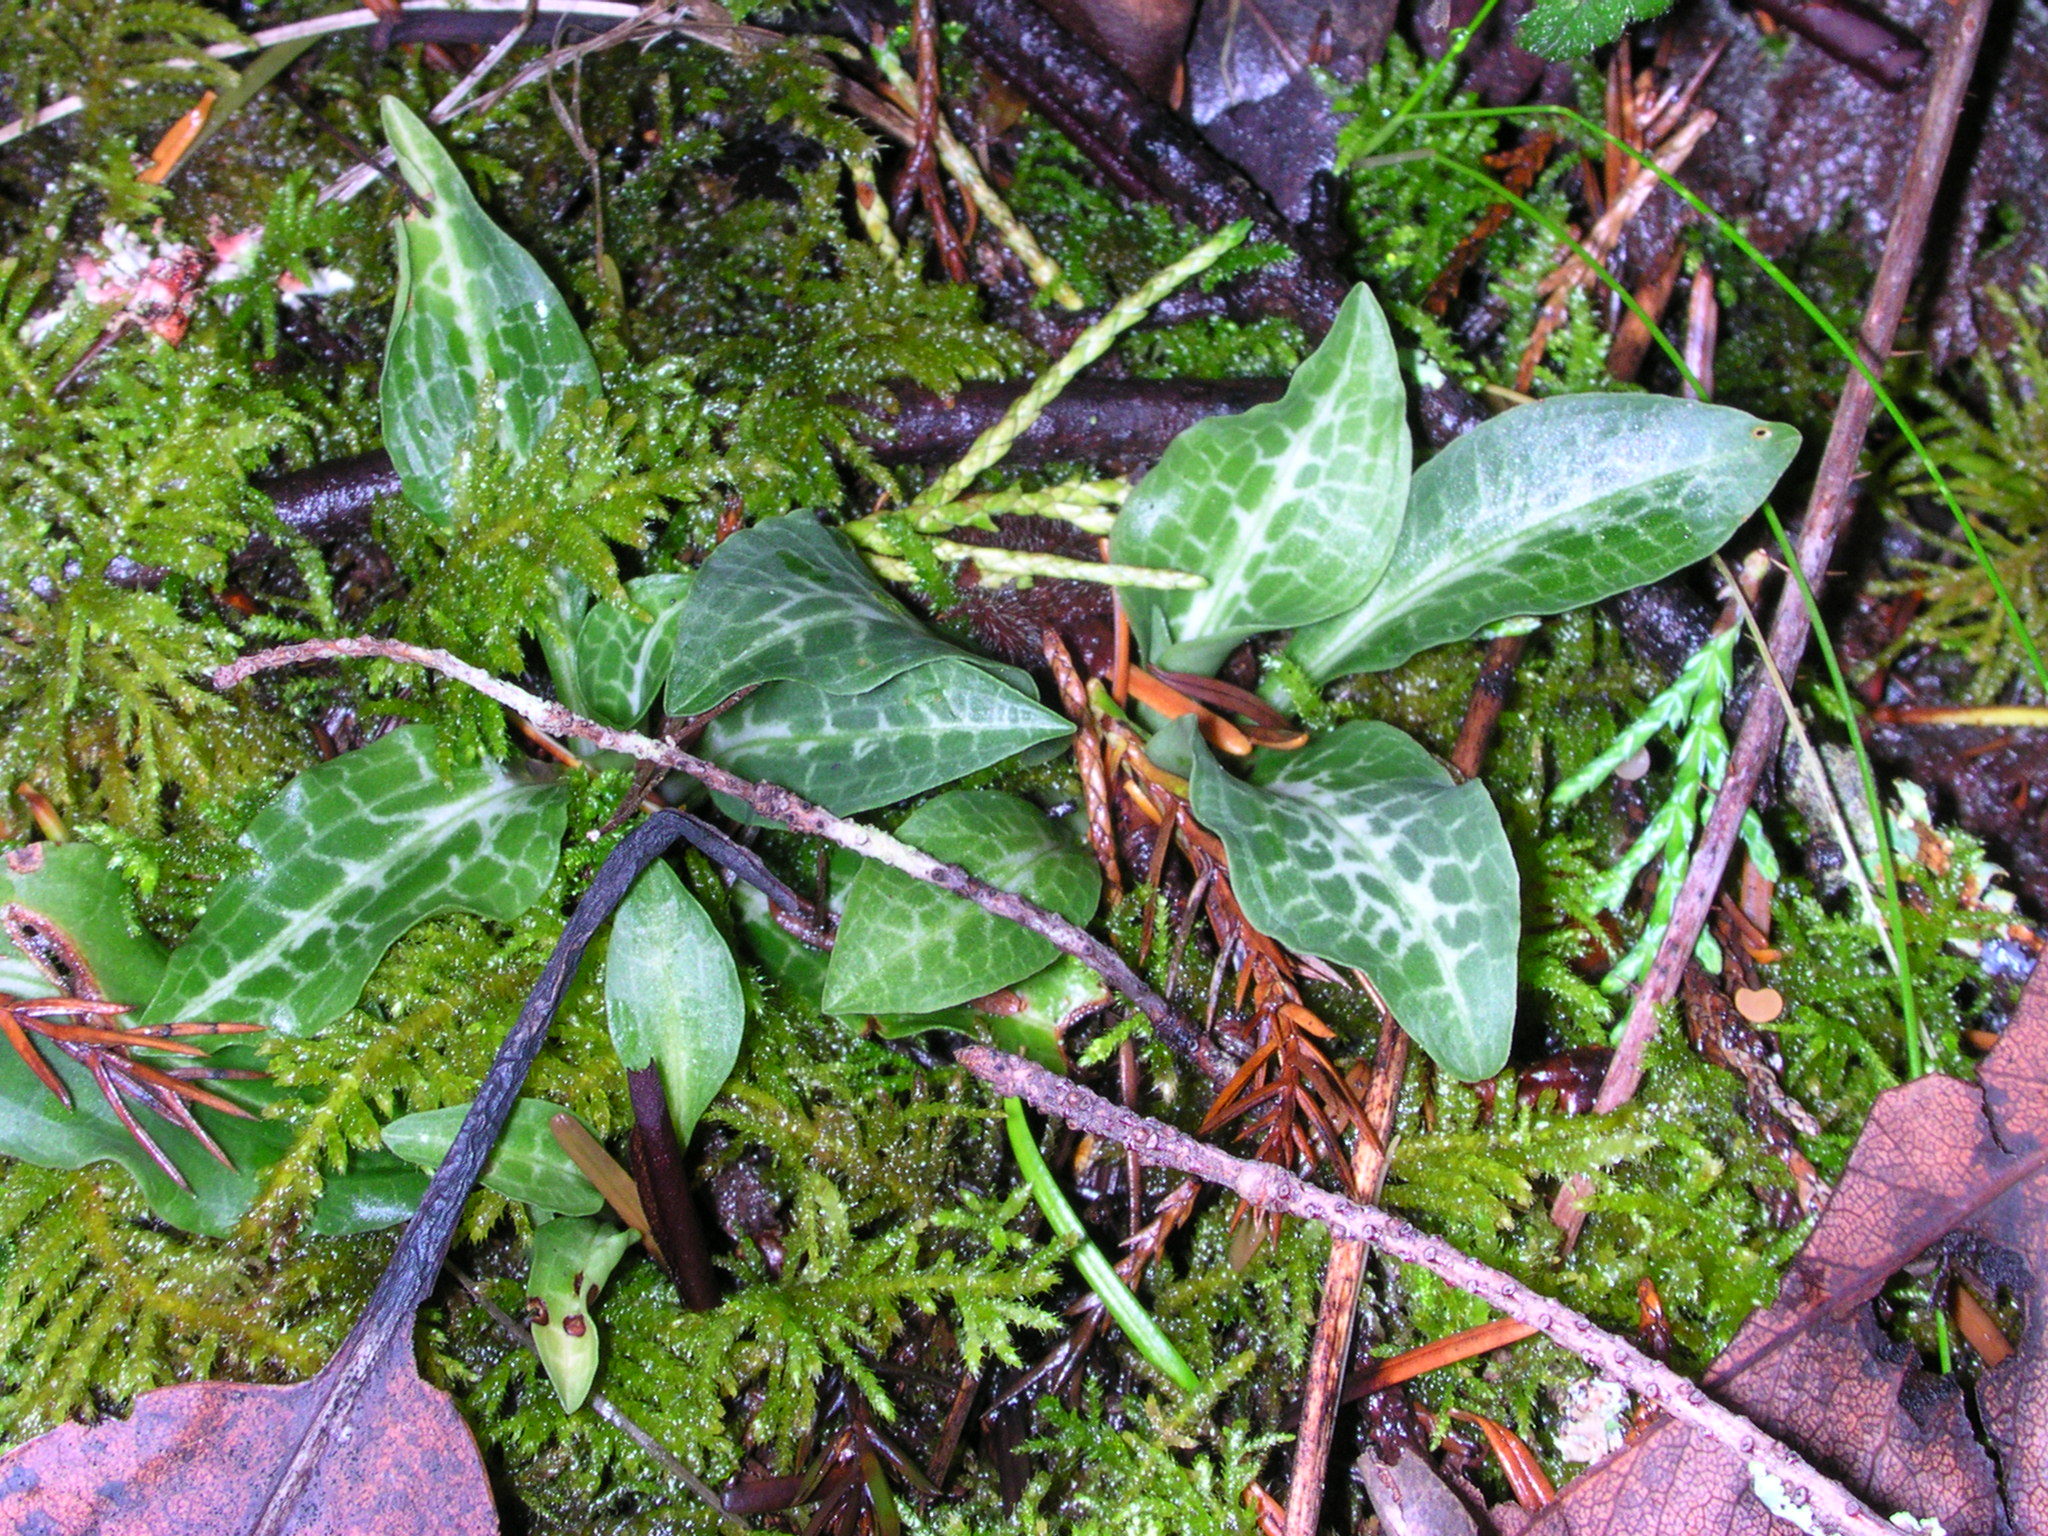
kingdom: Plantae
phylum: Tracheophyta
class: Liliopsida
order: Asparagales
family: Orchidaceae
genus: Goodyera
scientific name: Goodyera oblongifolia
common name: Giant rattlesnake-plantain
